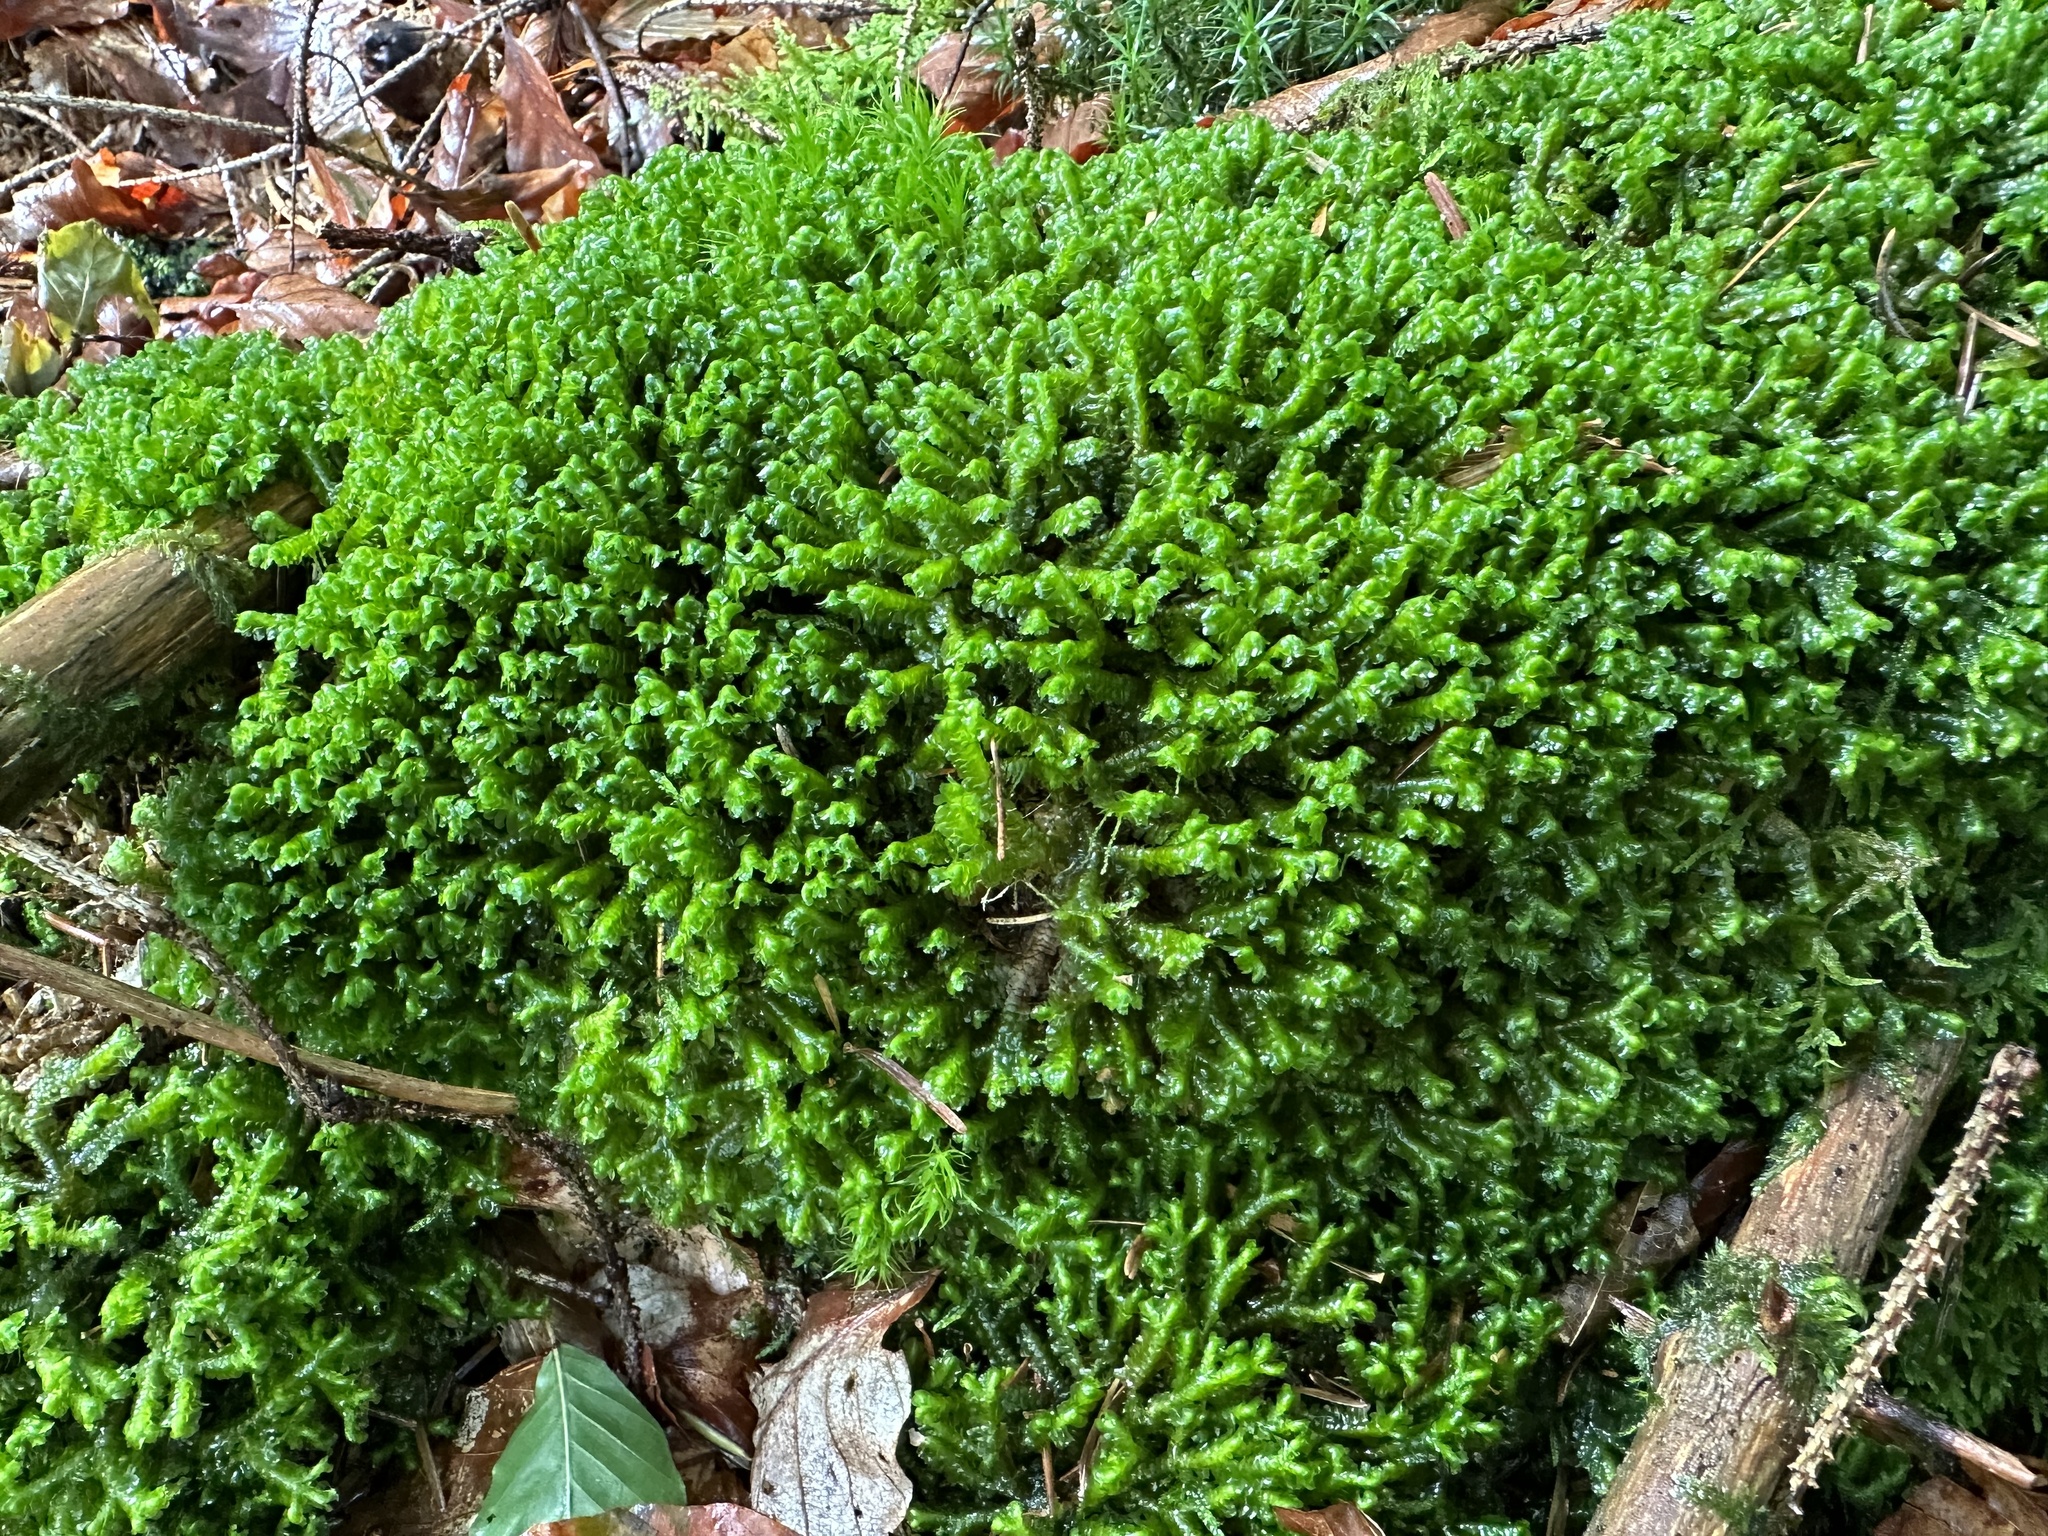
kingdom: Plantae
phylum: Marchantiophyta
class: Jungermanniopsida
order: Jungermanniales
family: Lepidoziaceae
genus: Bazzania
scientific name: Bazzania trilobata
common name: Three-lobed whipwort
